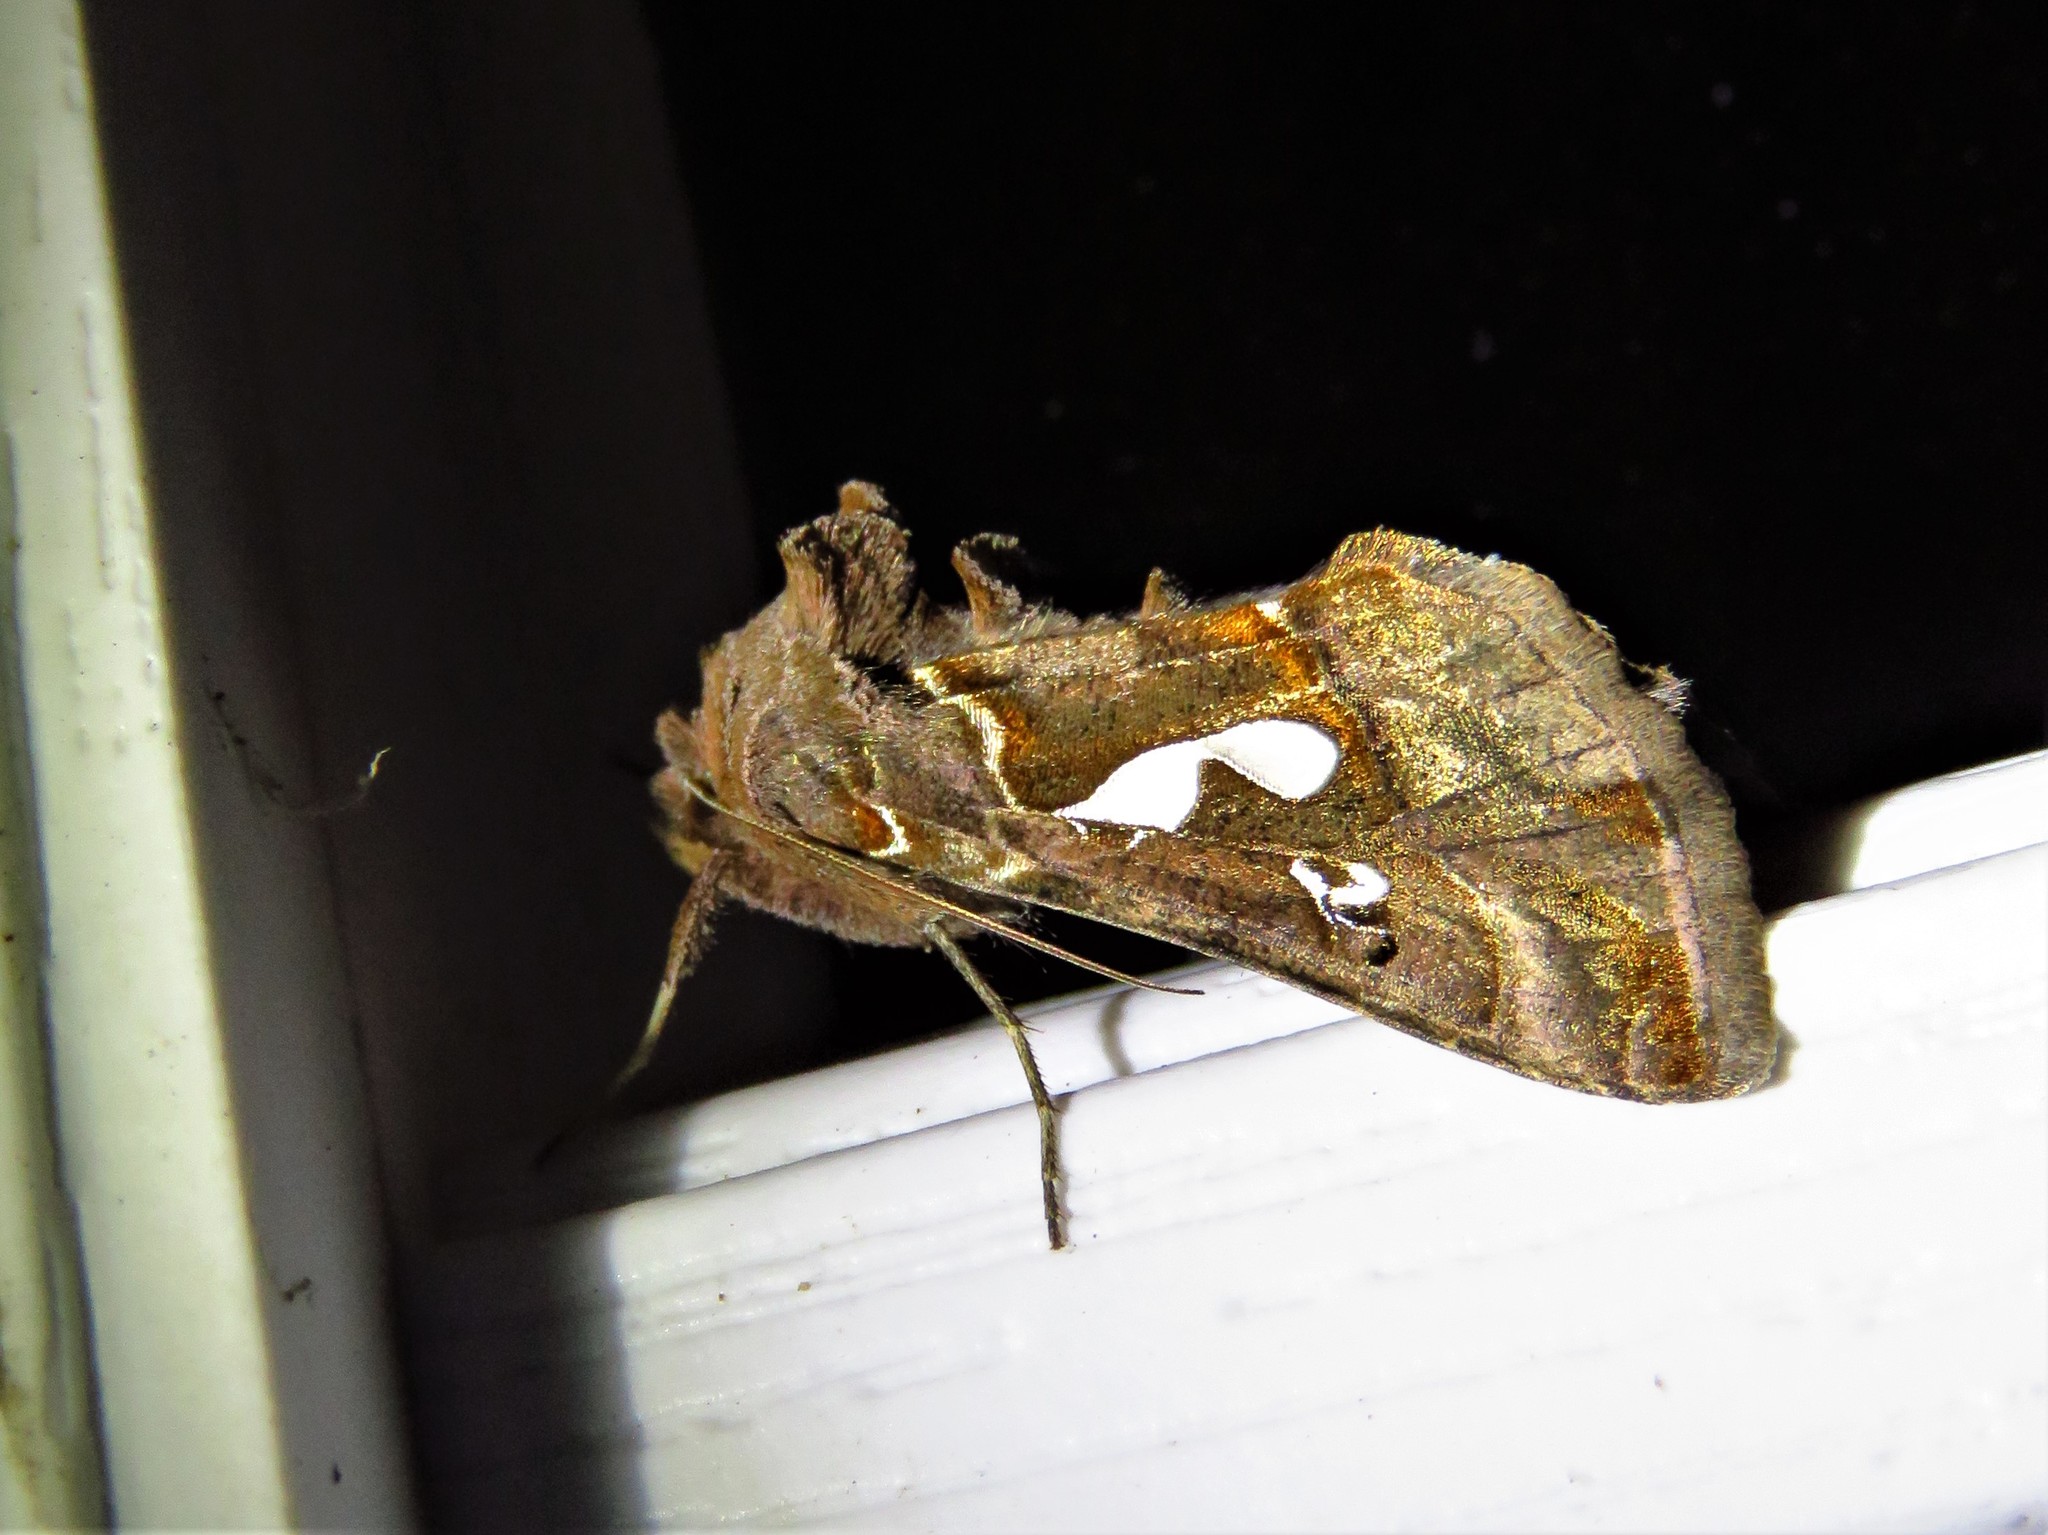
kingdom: Animalia
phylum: Arthropoda
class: Insecta
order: Lepidoptera
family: Noctuidae
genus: Megalographa
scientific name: Megalographa biloba
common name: Cutworm
